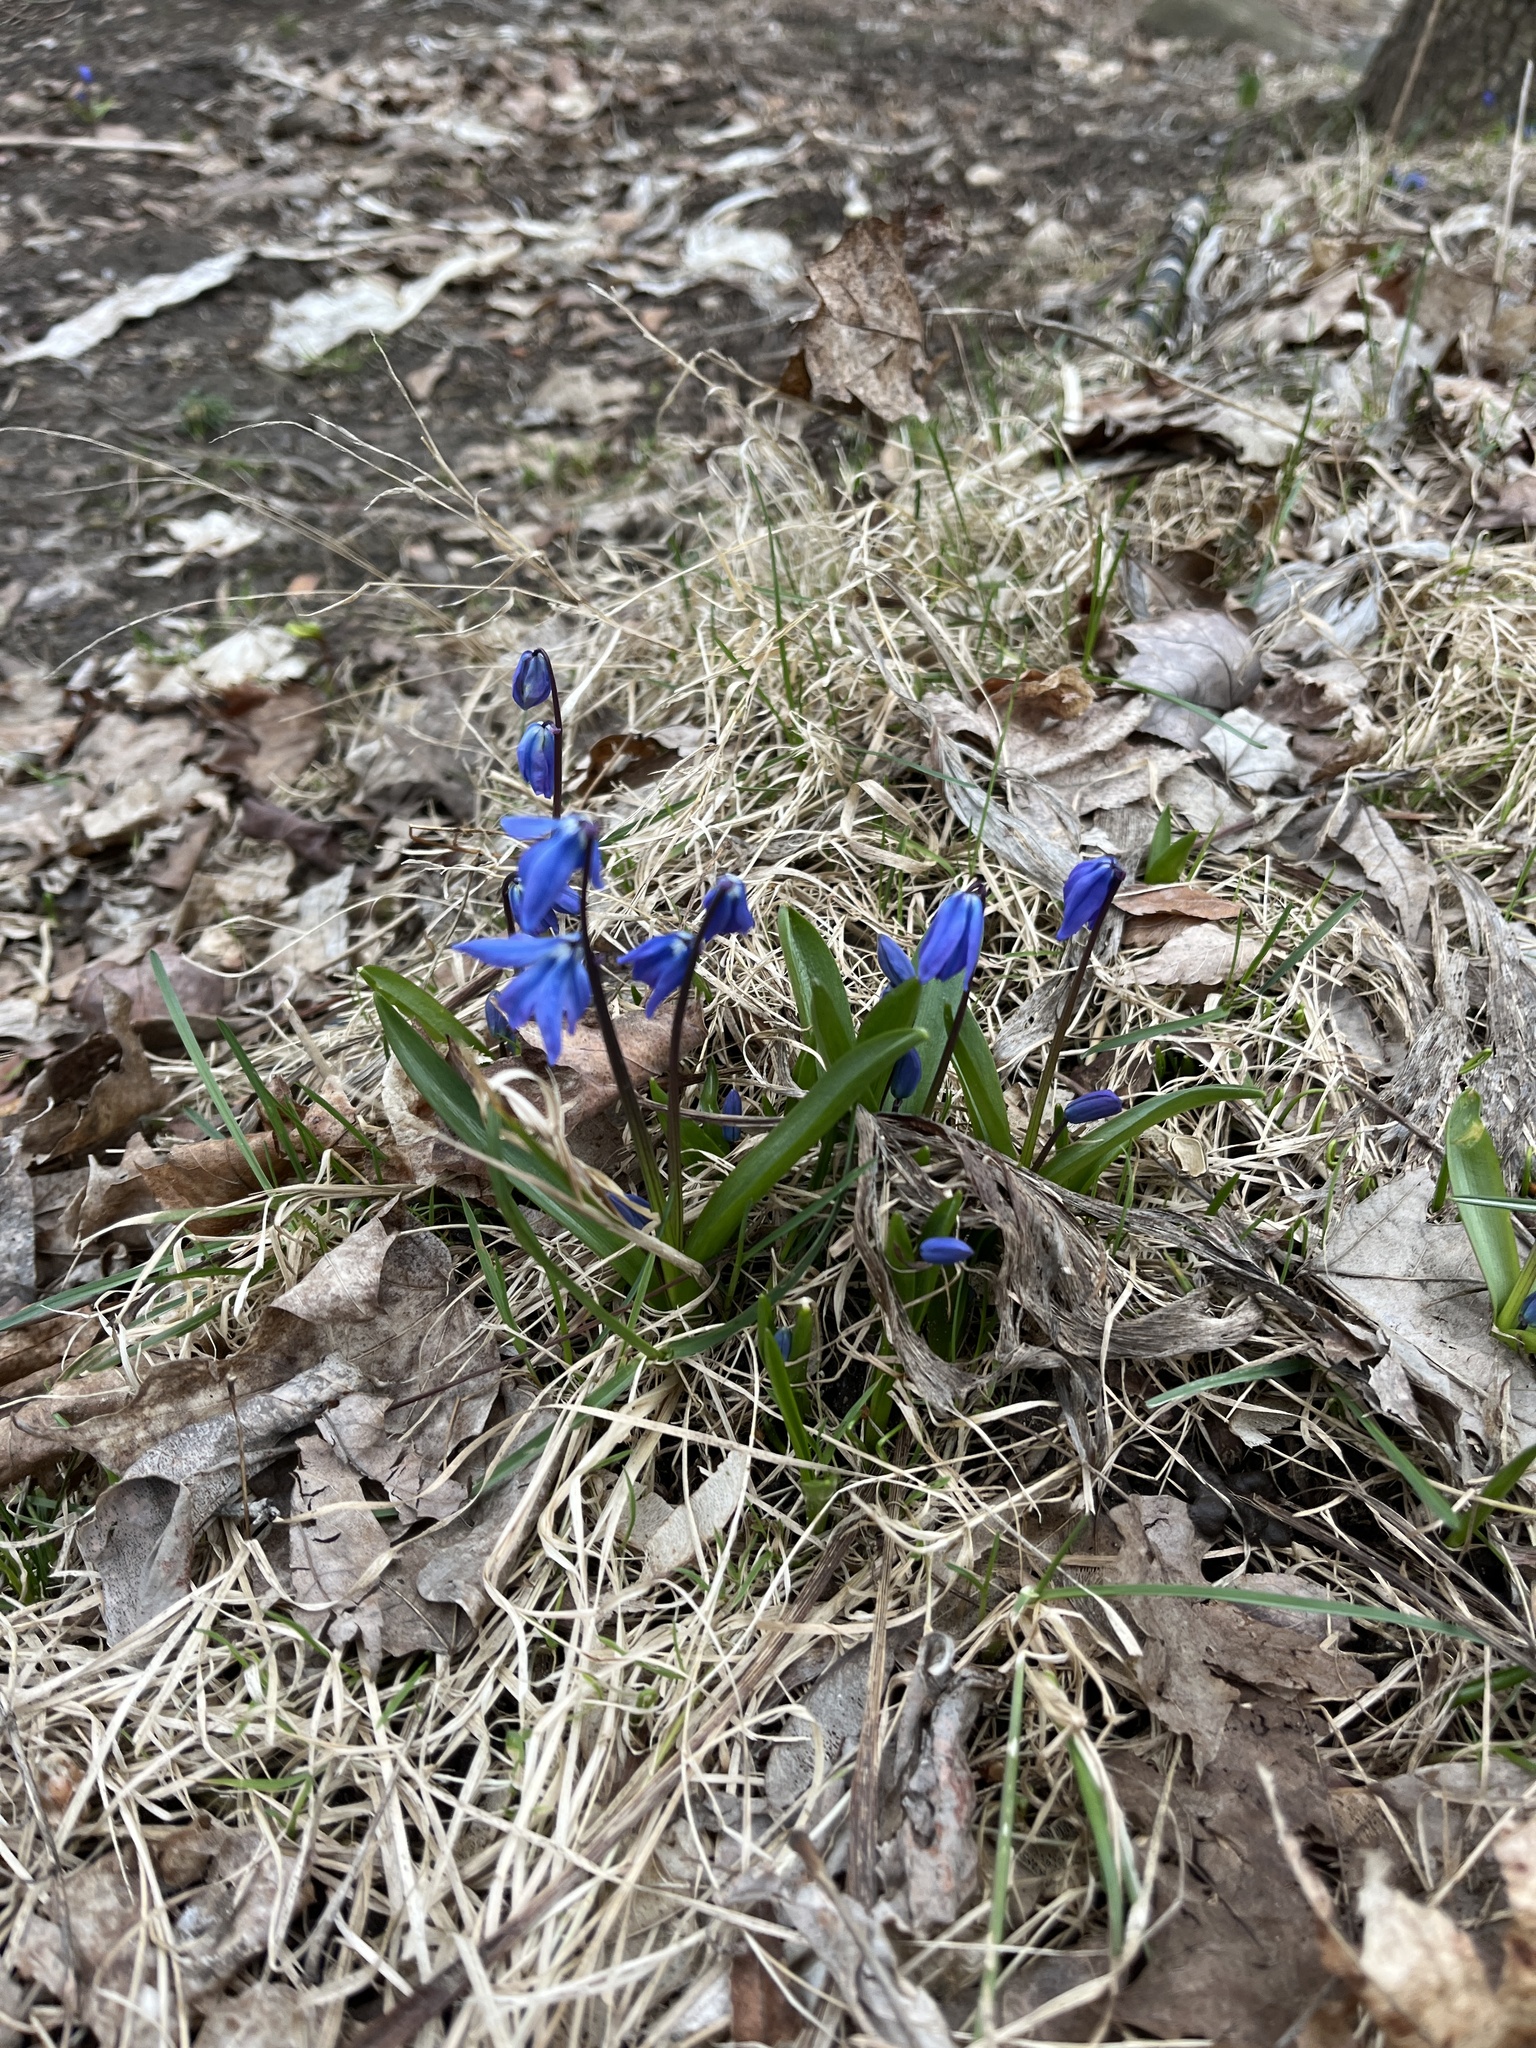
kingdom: Plantae
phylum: Tracheophyta
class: Liliopsida
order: Asparagales
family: Asparagaceae
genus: Scilla
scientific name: Scilla siberica
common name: Siberian squill
